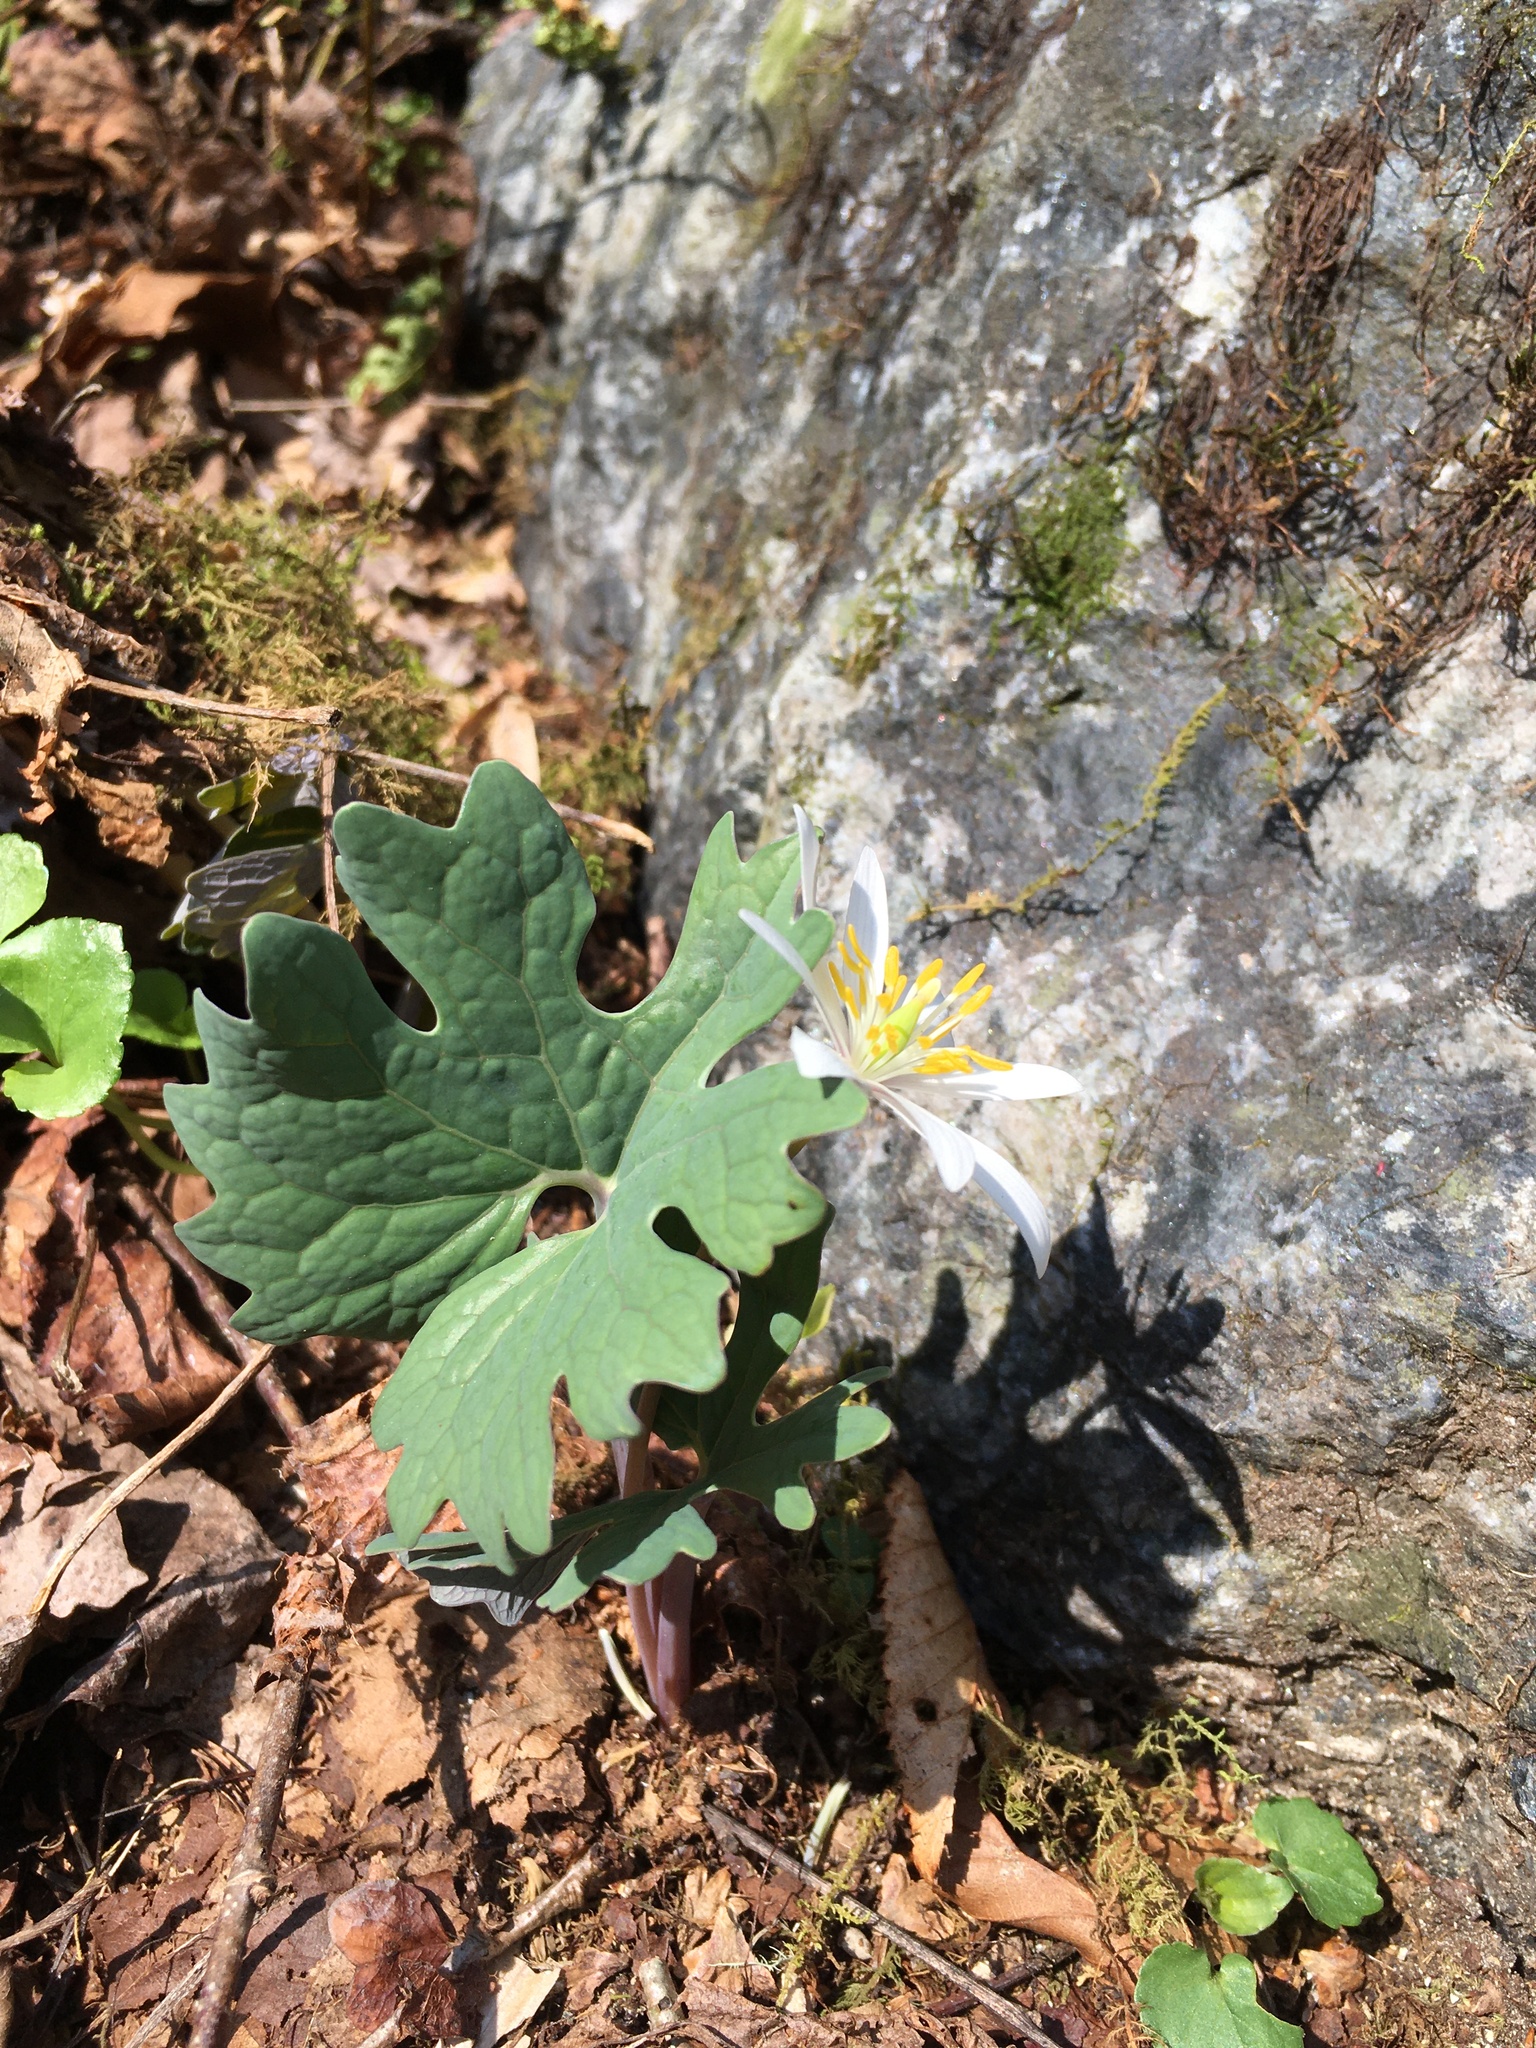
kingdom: Plantae
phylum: Tracheophyta
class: Magnoliopsida
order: Ranunculales
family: Papaveraceae
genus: Sanguinaria
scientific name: Sanguinaria canadensis
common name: Bloodroot
